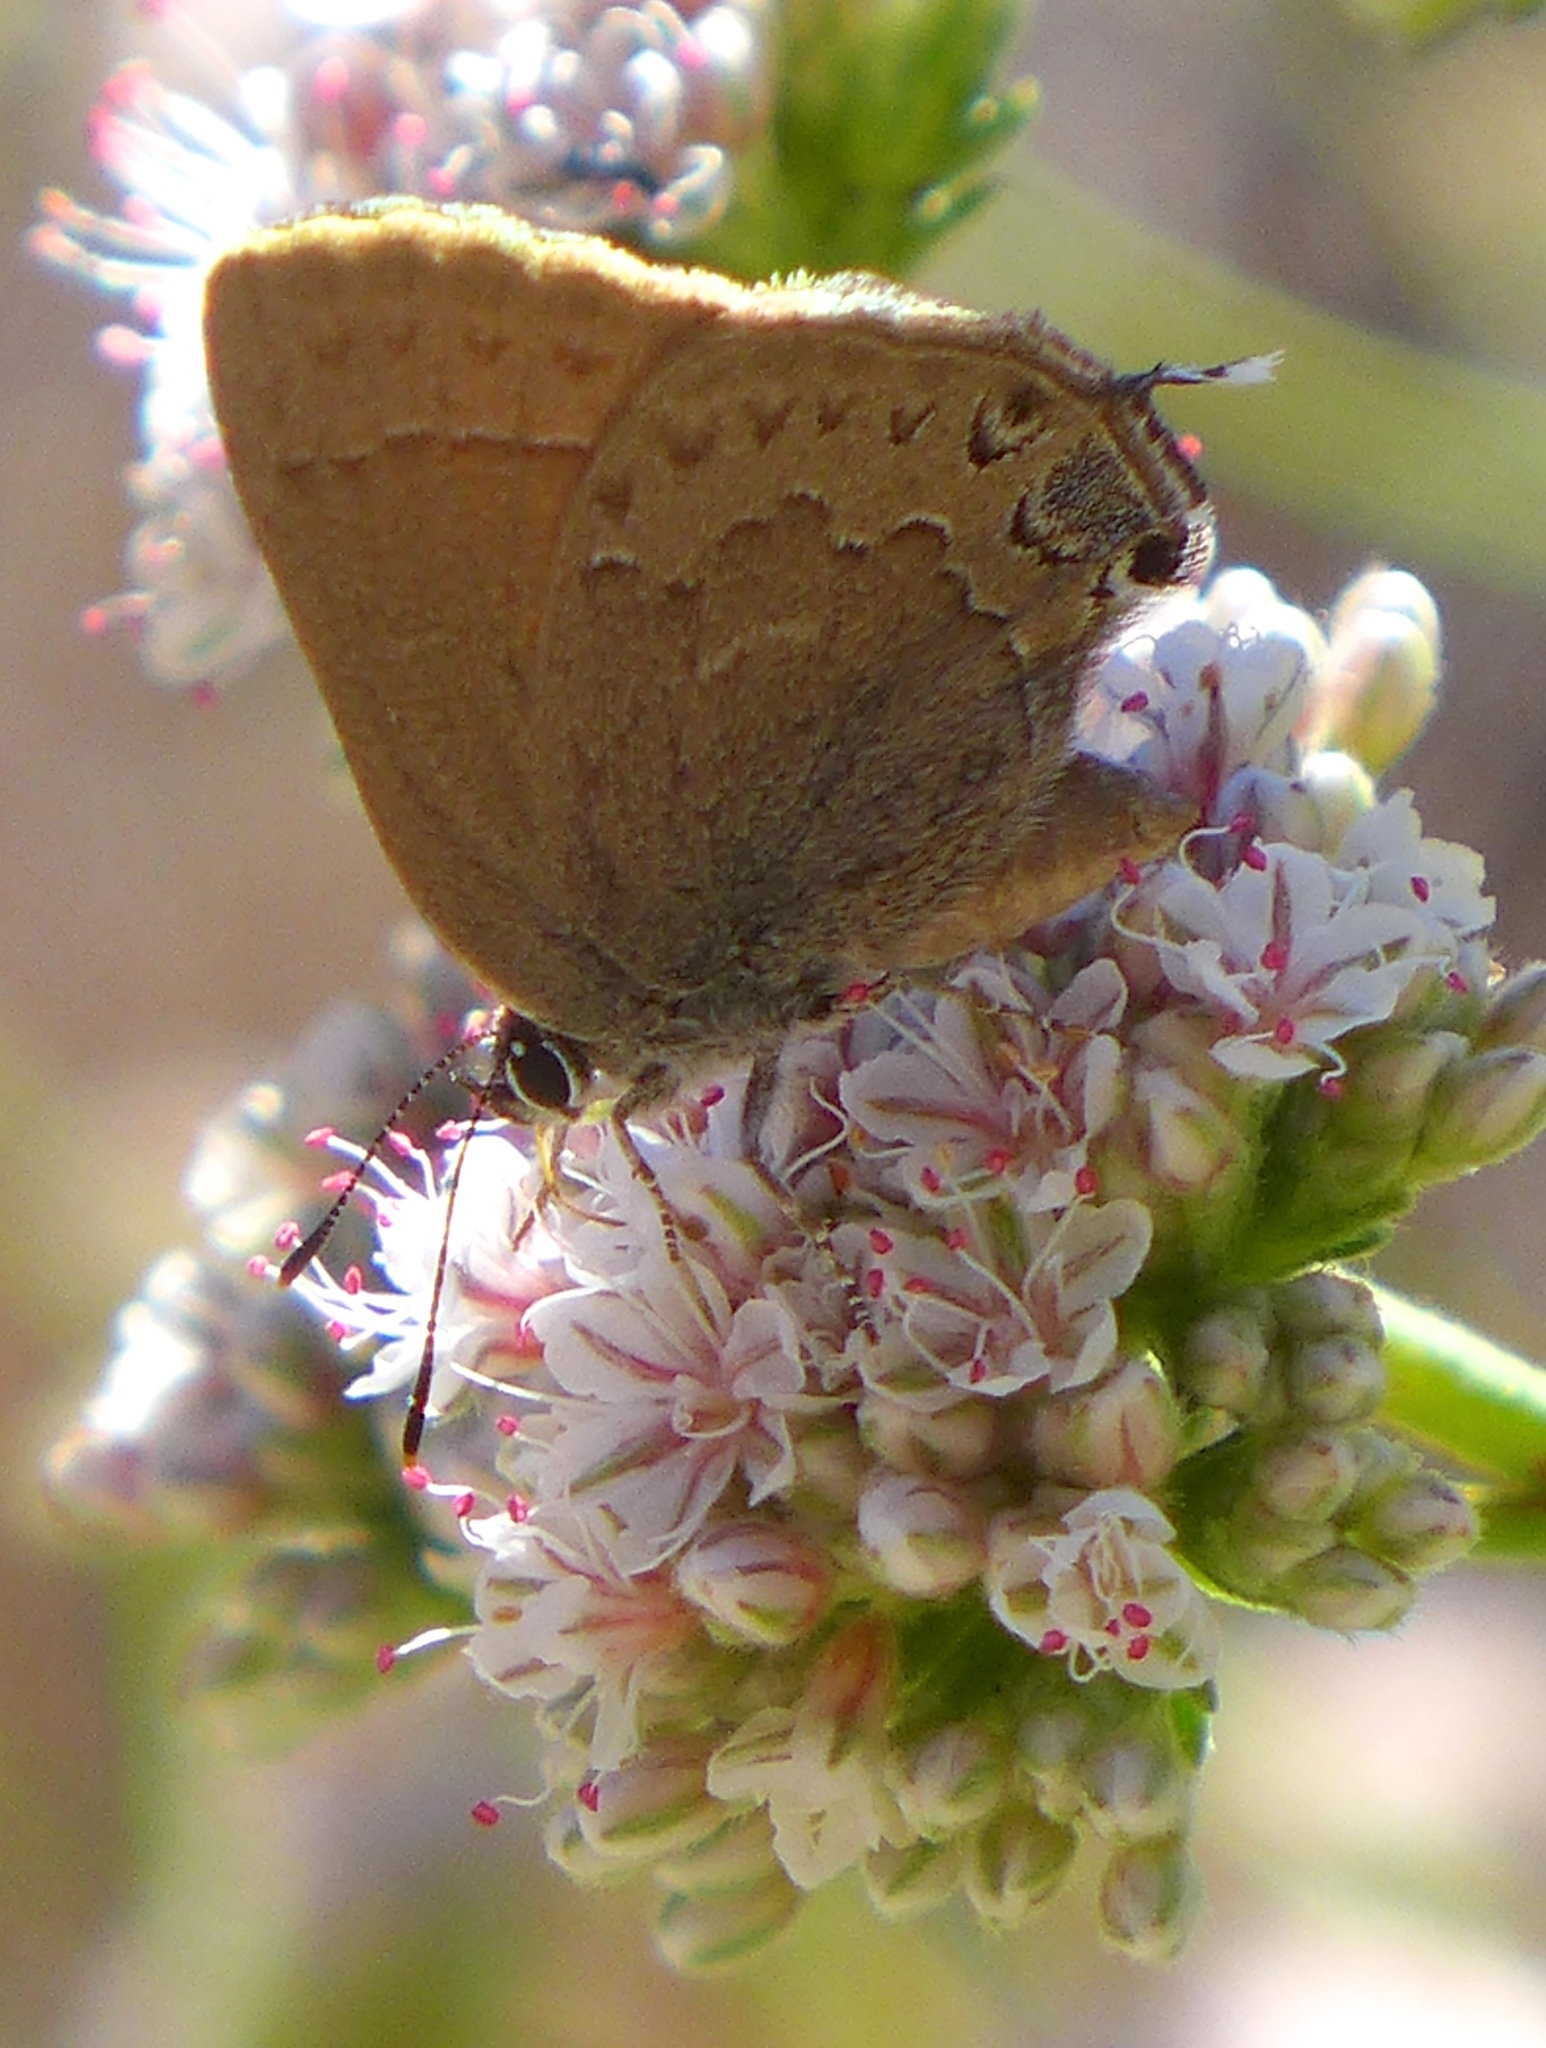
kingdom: Animalia
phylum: Arthropoda
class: Insecta
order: Lepidoptera
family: Lycaenidae
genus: Strymon
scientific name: Strymon saepium
